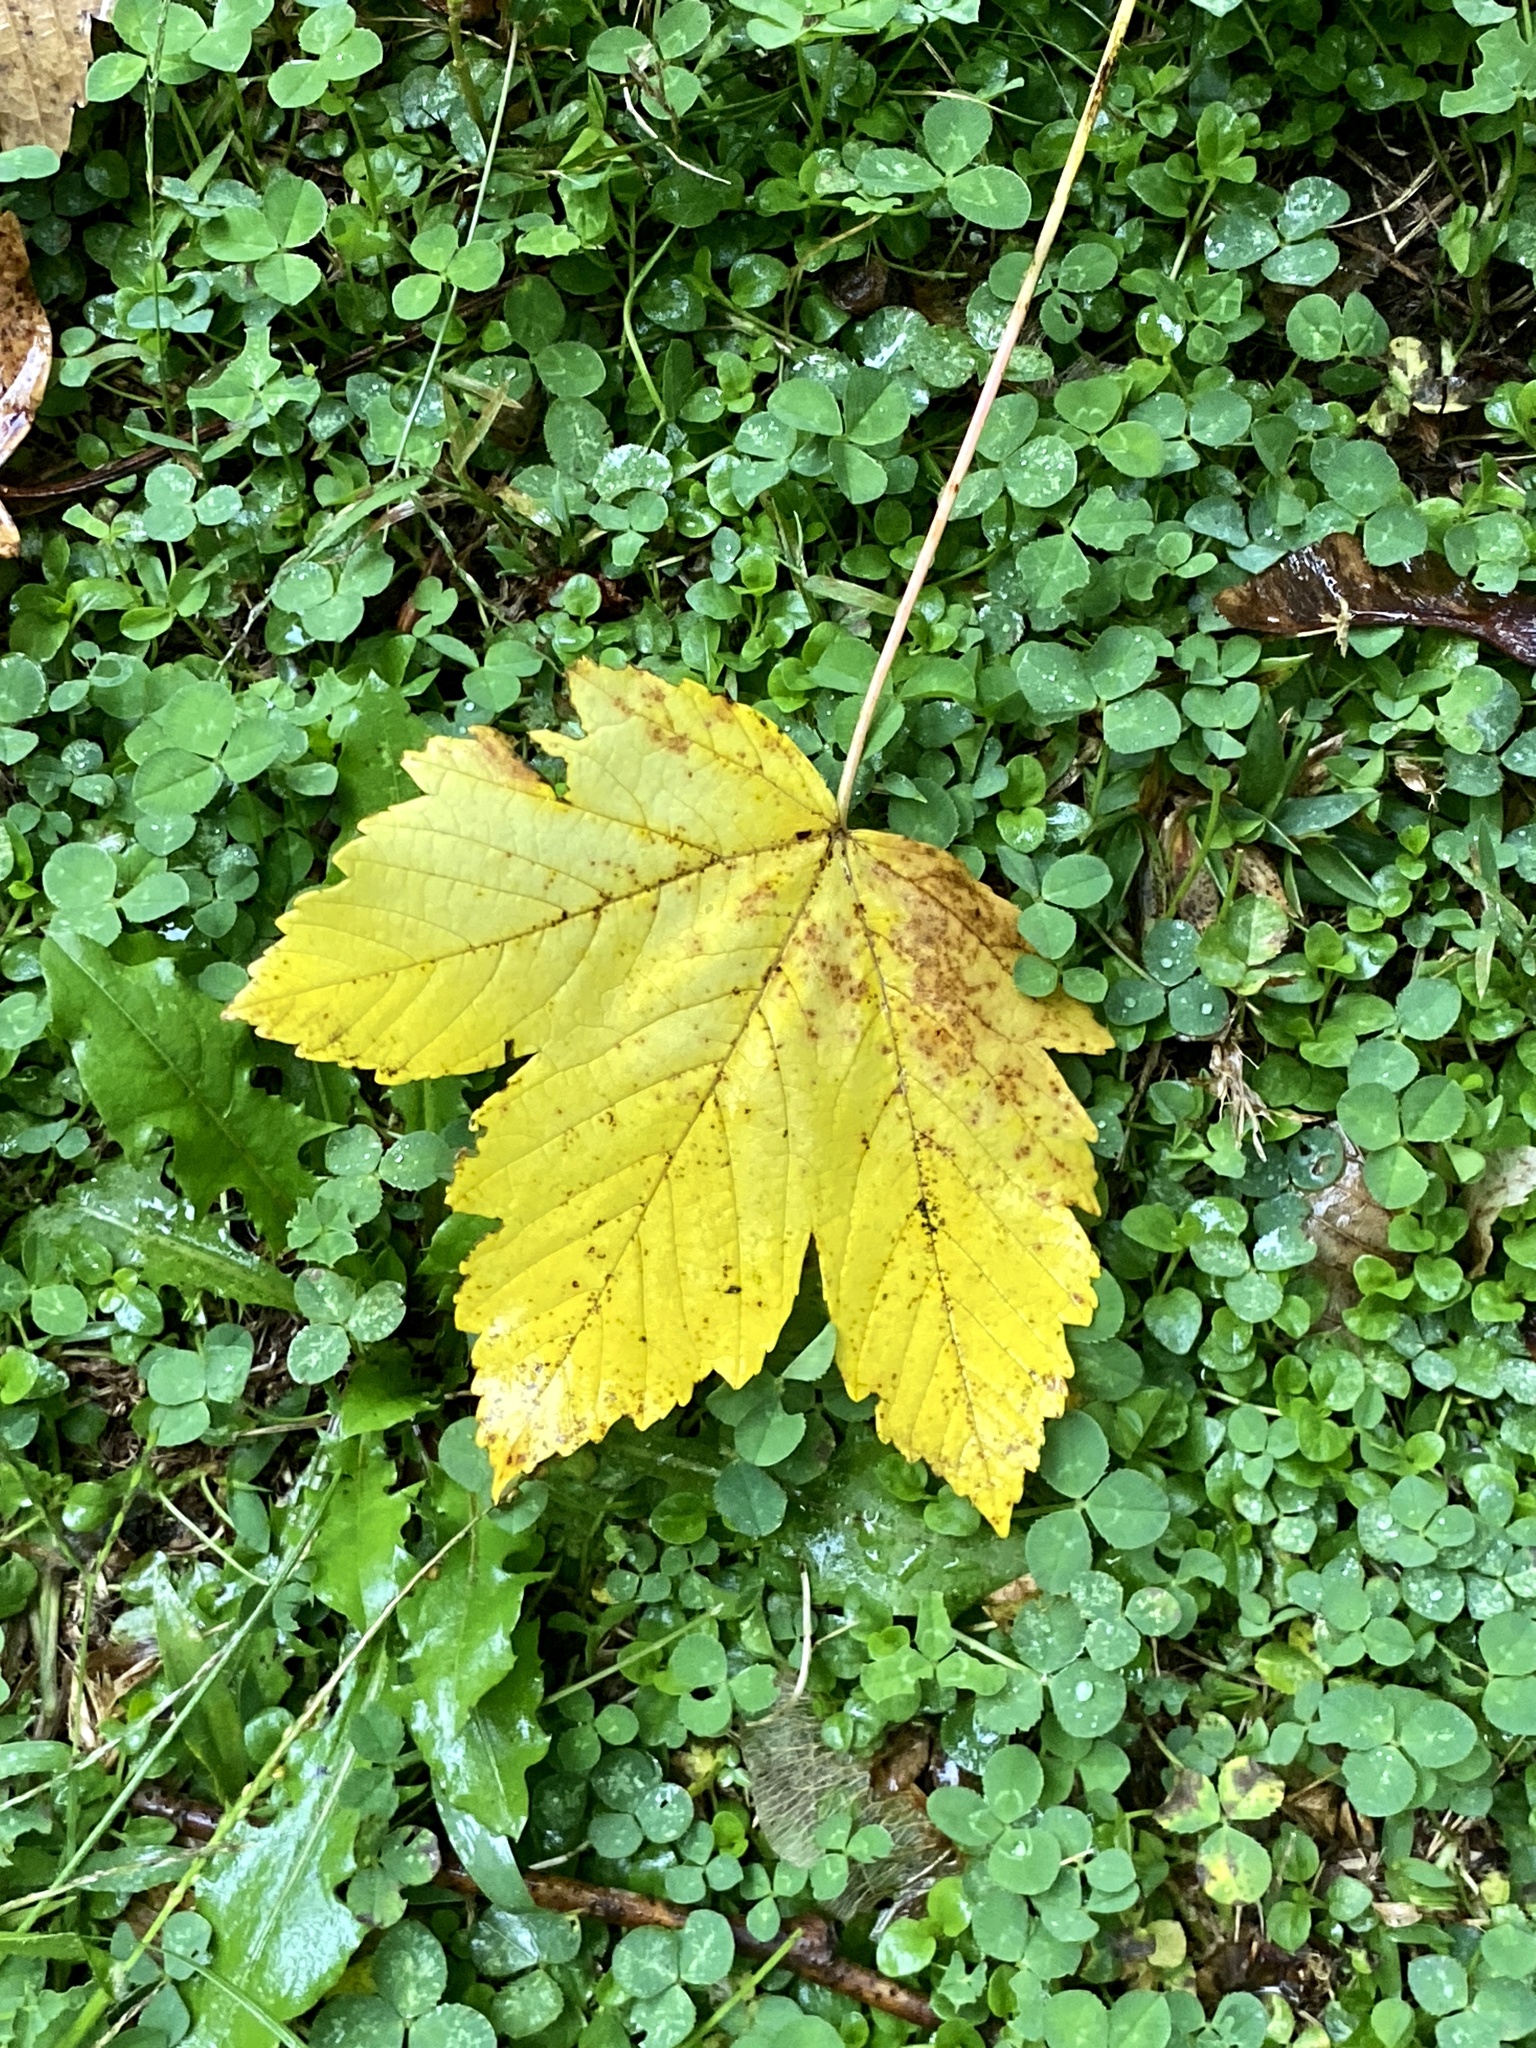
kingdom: Plantae
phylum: Tracheophyta
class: Magnoliopsida
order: Sapindales
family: Sapindaceae
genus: Acer
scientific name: Acer pseudoplatanus
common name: Sycamore
